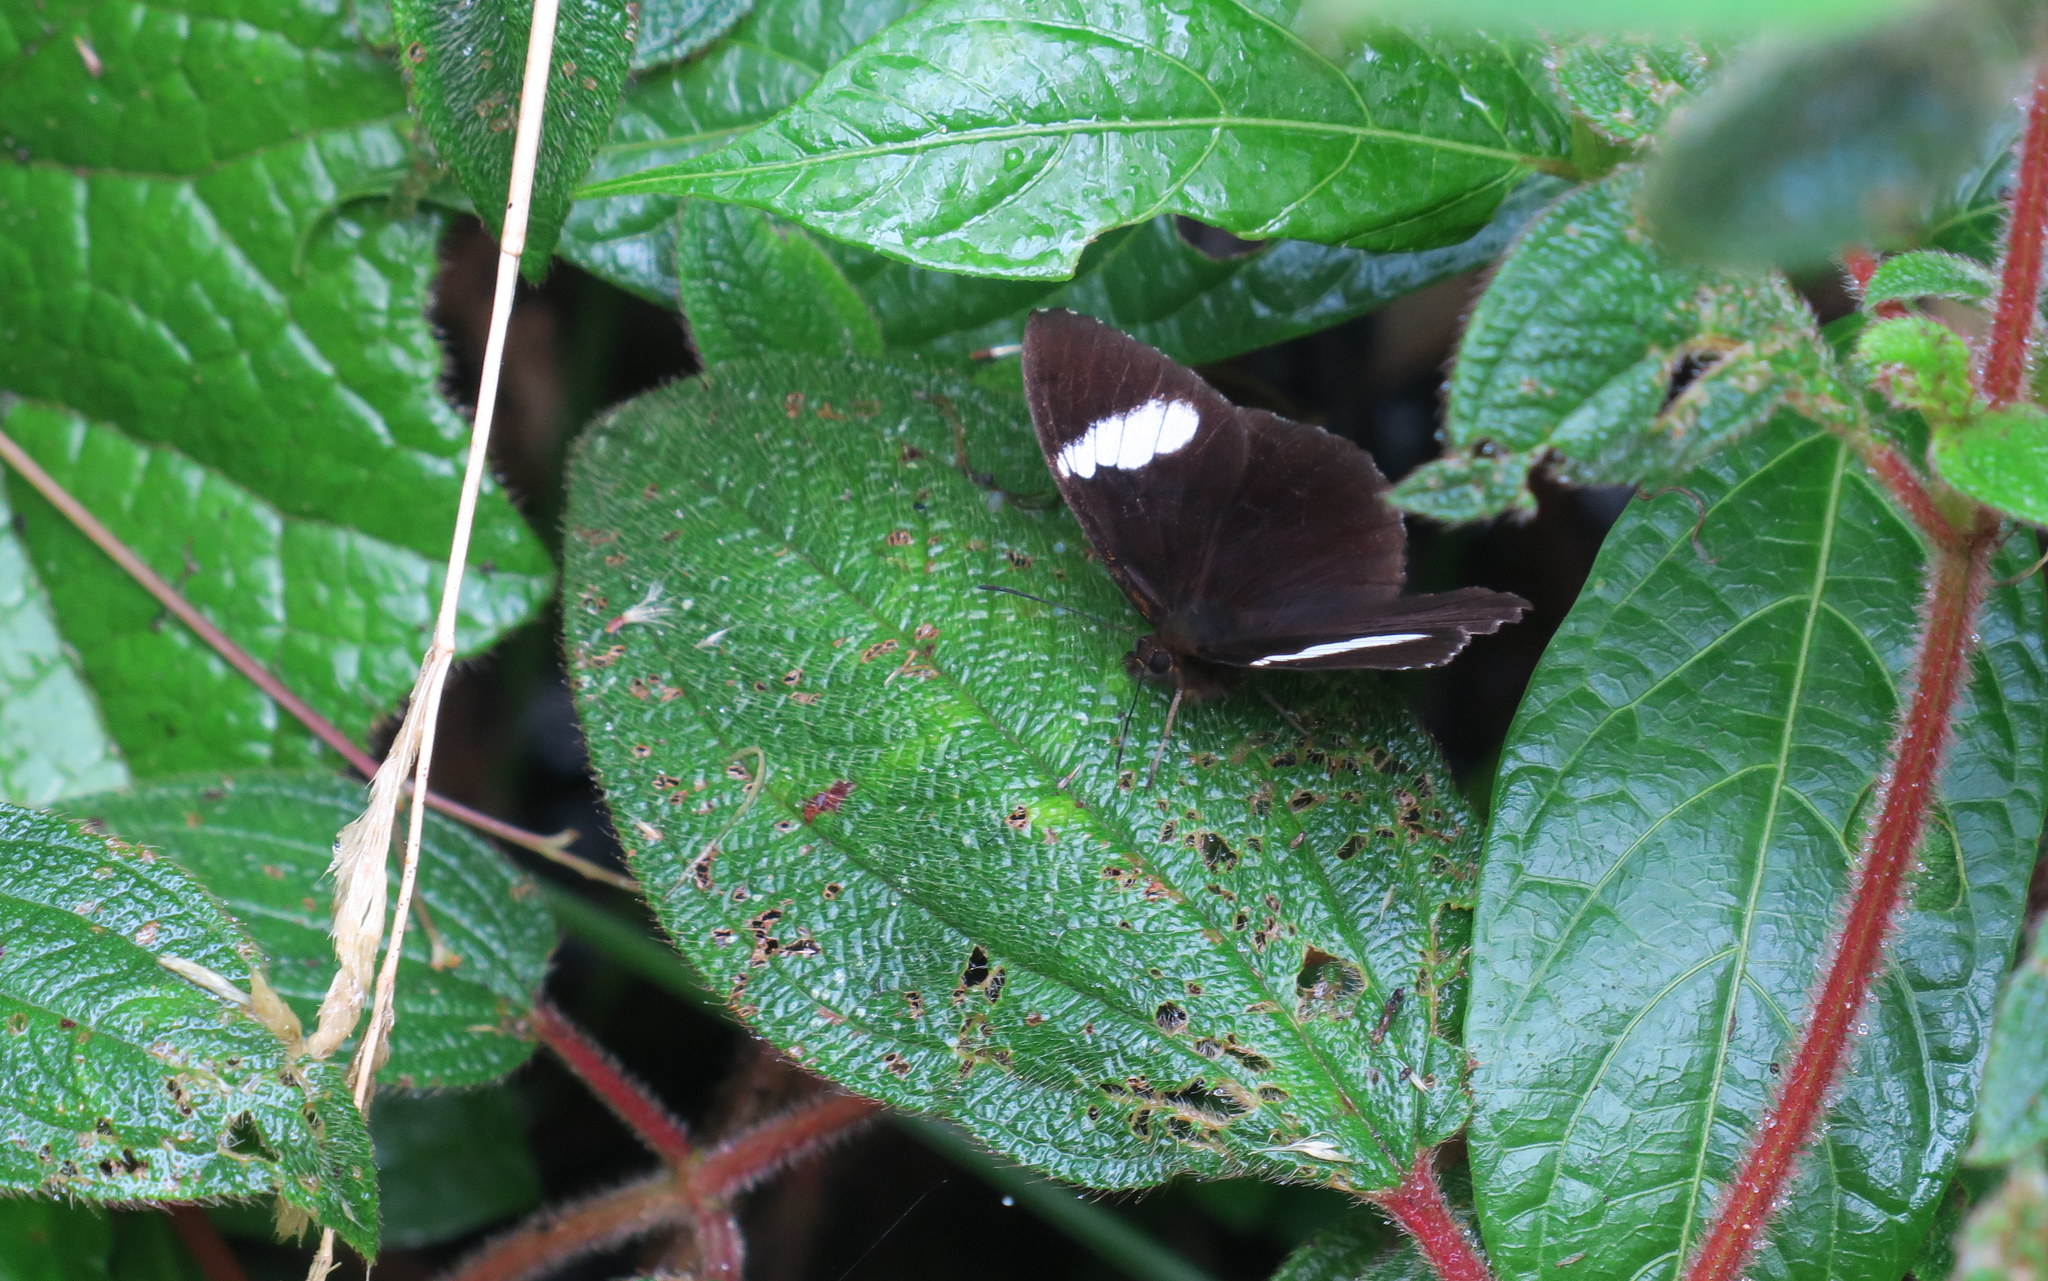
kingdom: Animalia
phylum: Arthropoda
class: Insecta
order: Lepidoptera
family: Nymphalidae
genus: Pedaliodes
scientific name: Pedaliodes peucestas
